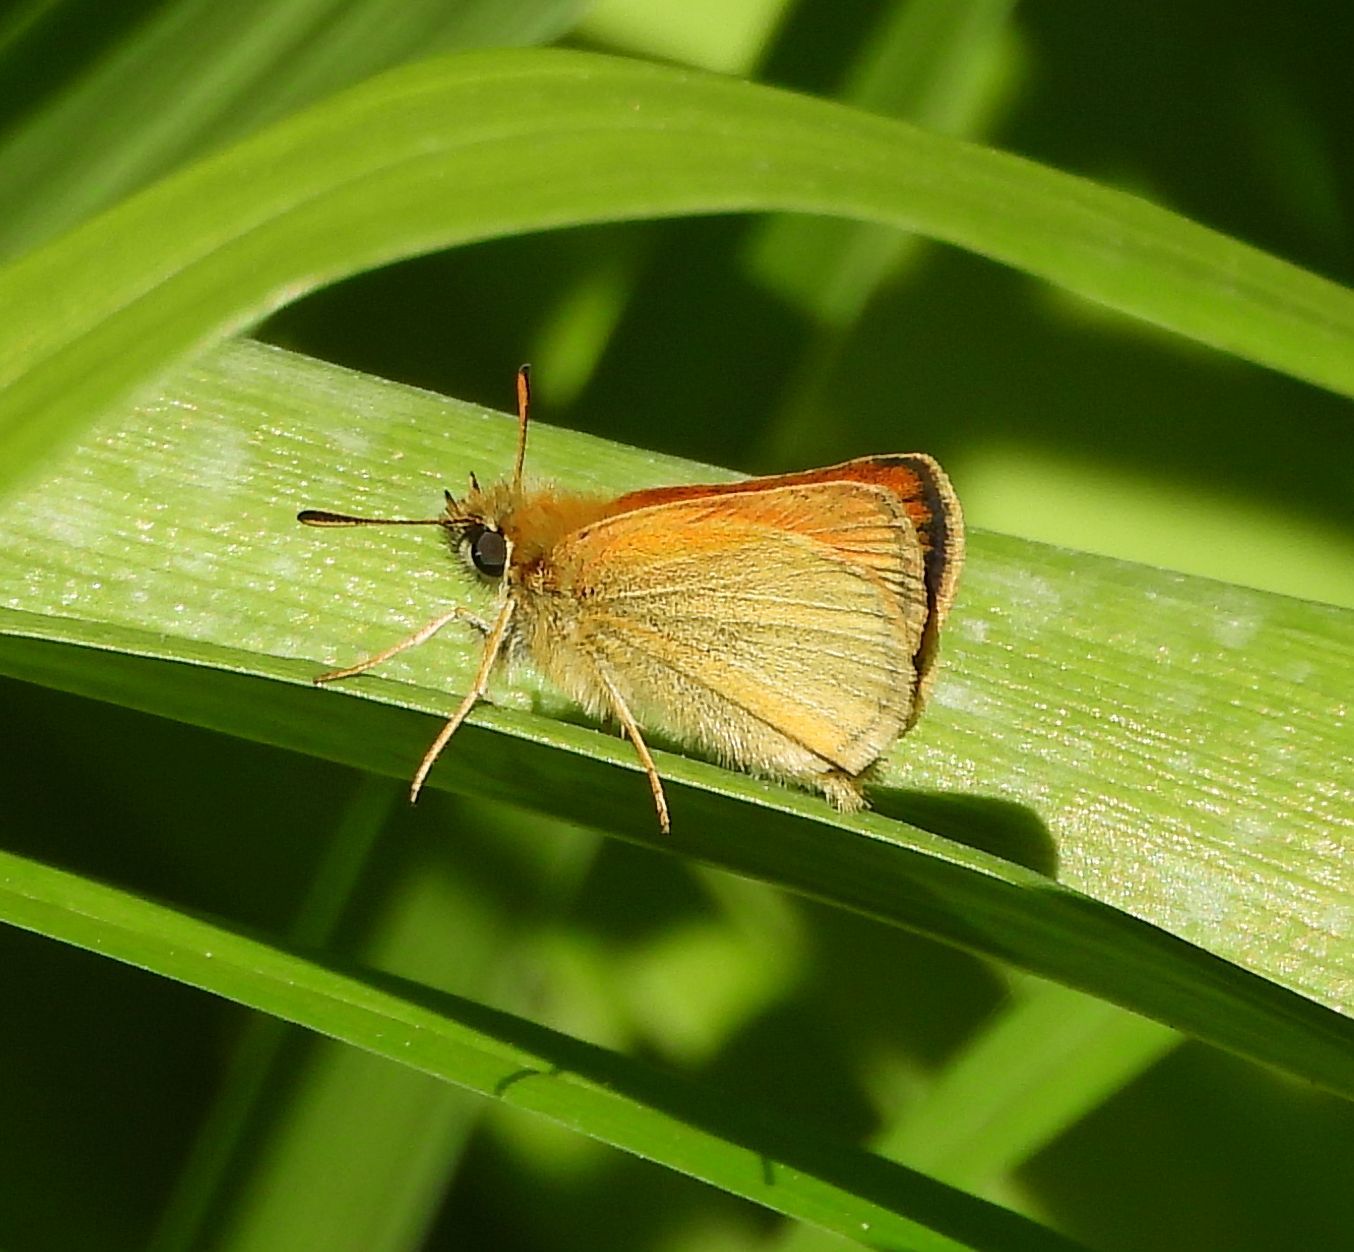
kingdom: Animalia
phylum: Arthropoda
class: Insecta
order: Lepidoptera
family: Hesperiidae
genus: Thymelicus
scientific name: Thymelicus lineola
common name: Essex skipper
